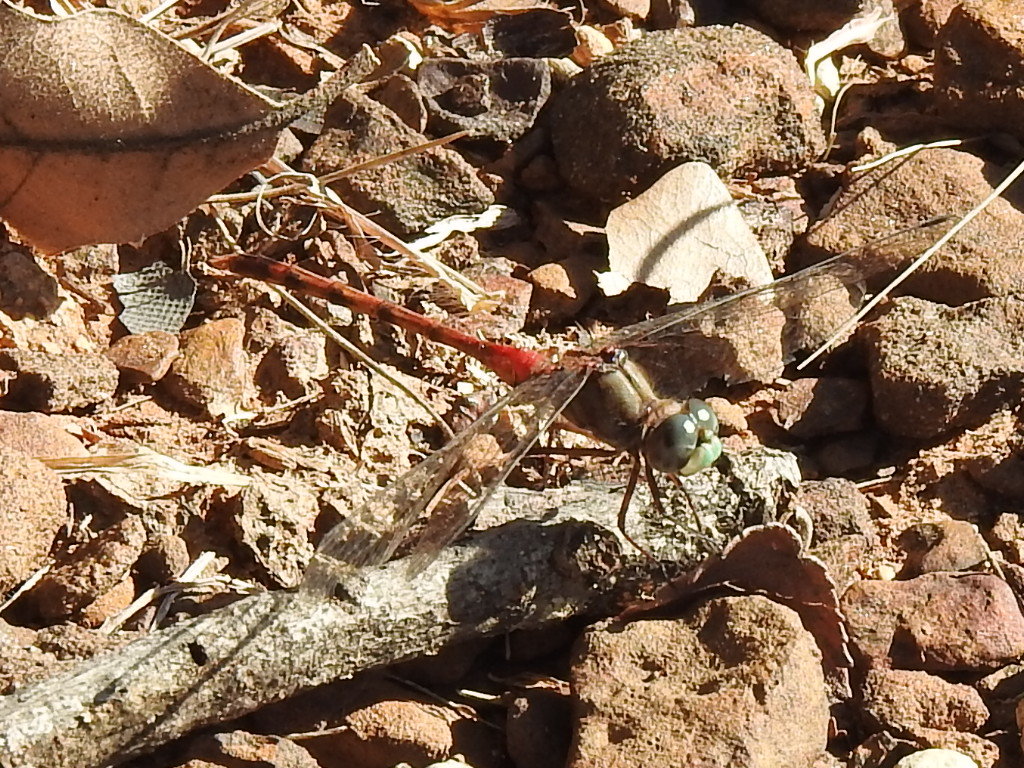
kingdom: Animalia
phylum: Arthropoda
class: Insecta
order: Odonata
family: Libellulidae
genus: Sympetrum
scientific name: Sympetrum ambiguum
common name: Blue-faced meadowhawk
